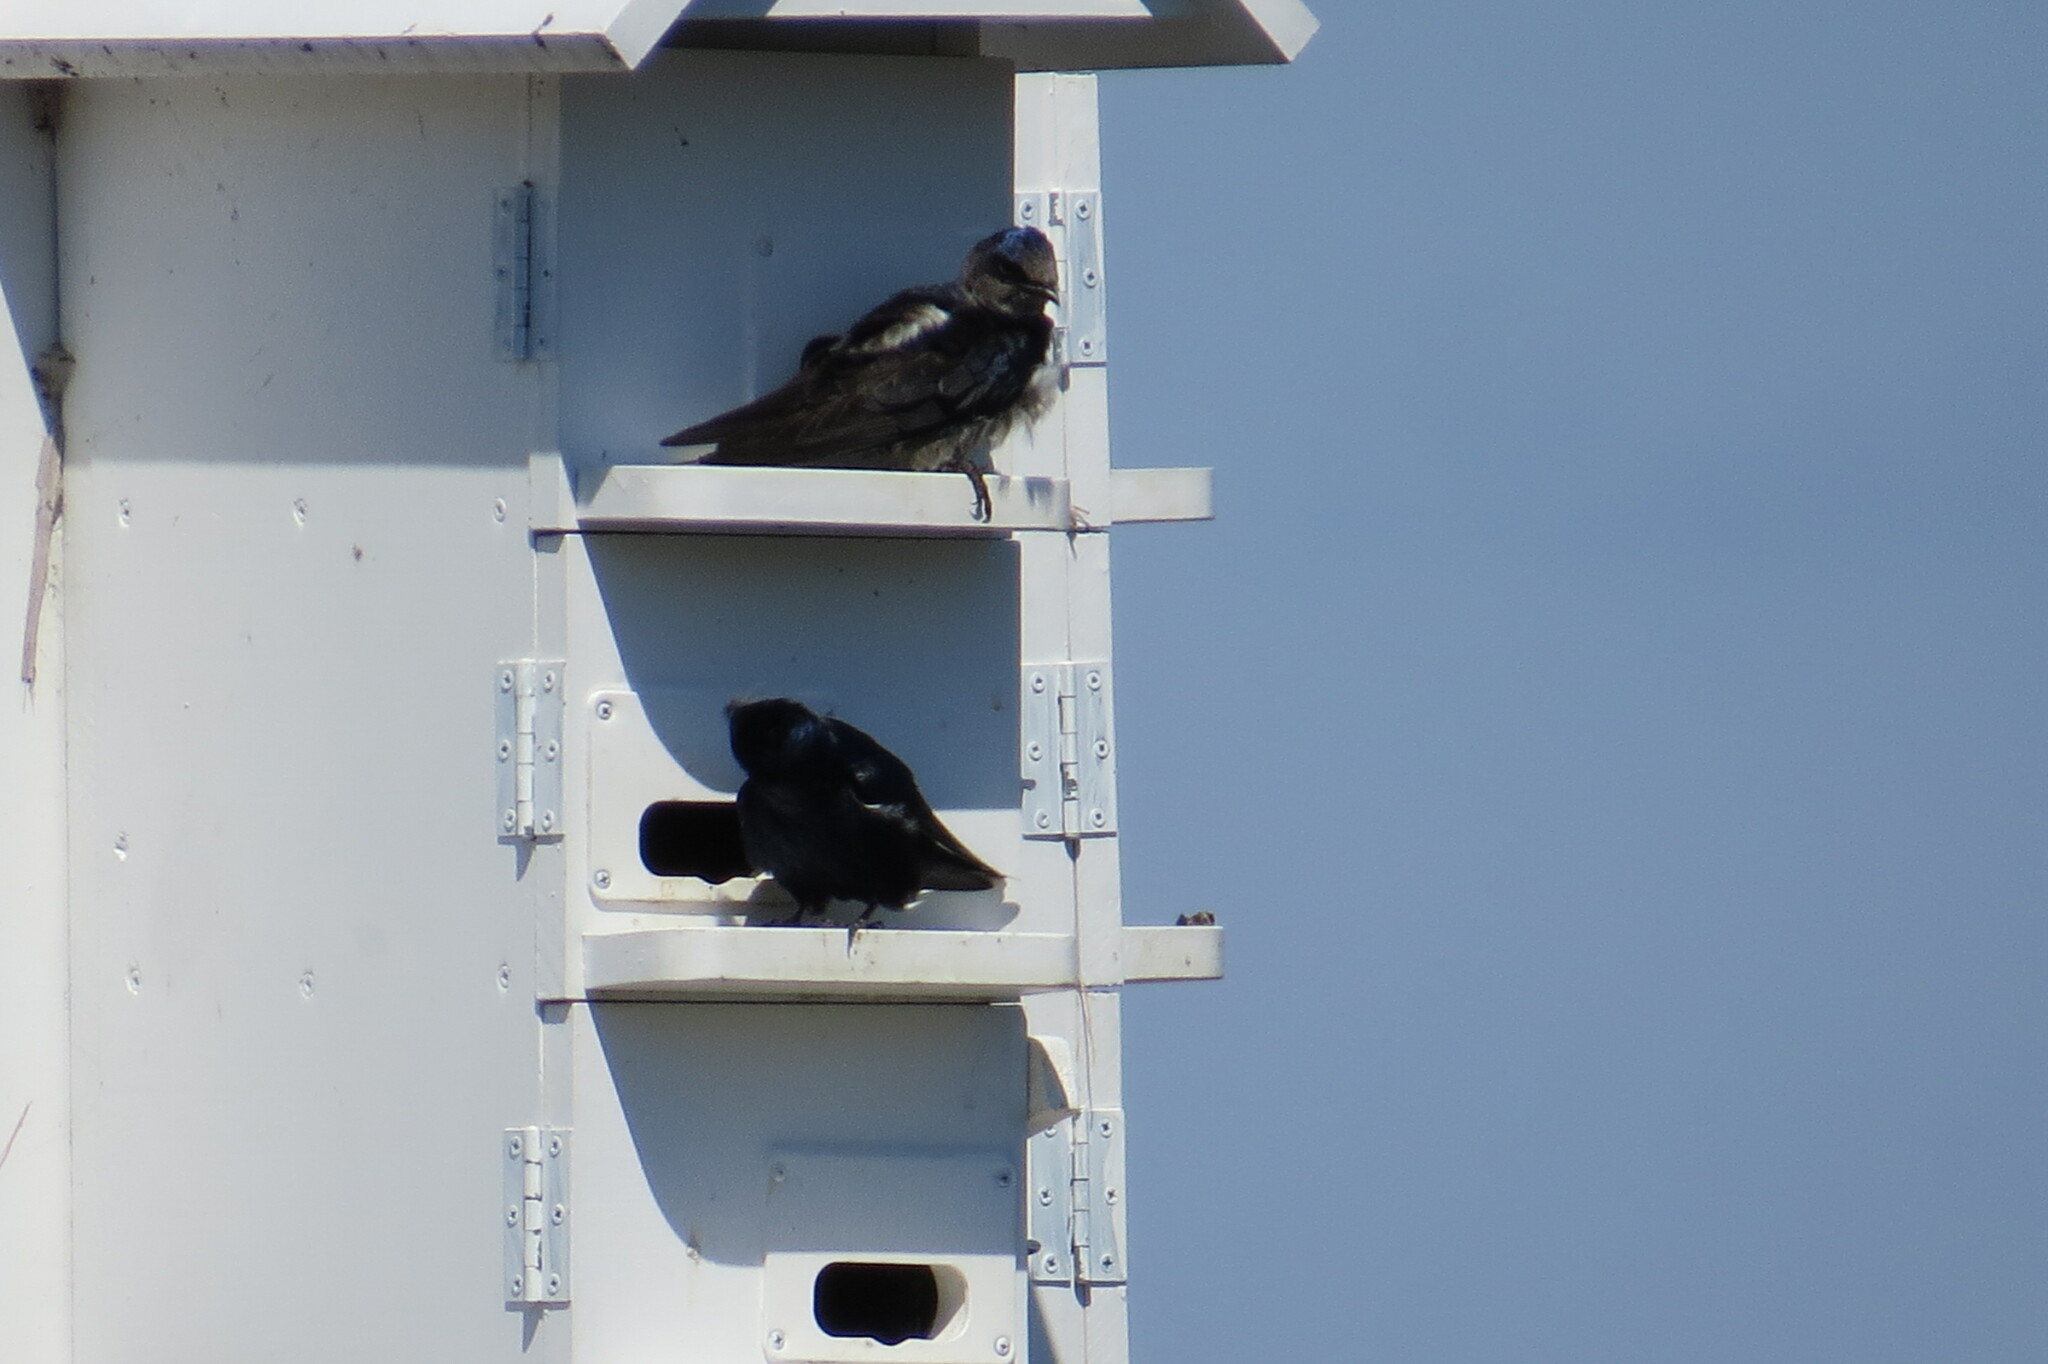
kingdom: Animalia
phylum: Chordata
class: Aves
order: Passeriformes
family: Hirundinidae
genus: Progne
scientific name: Progne subis
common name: Purple martin
